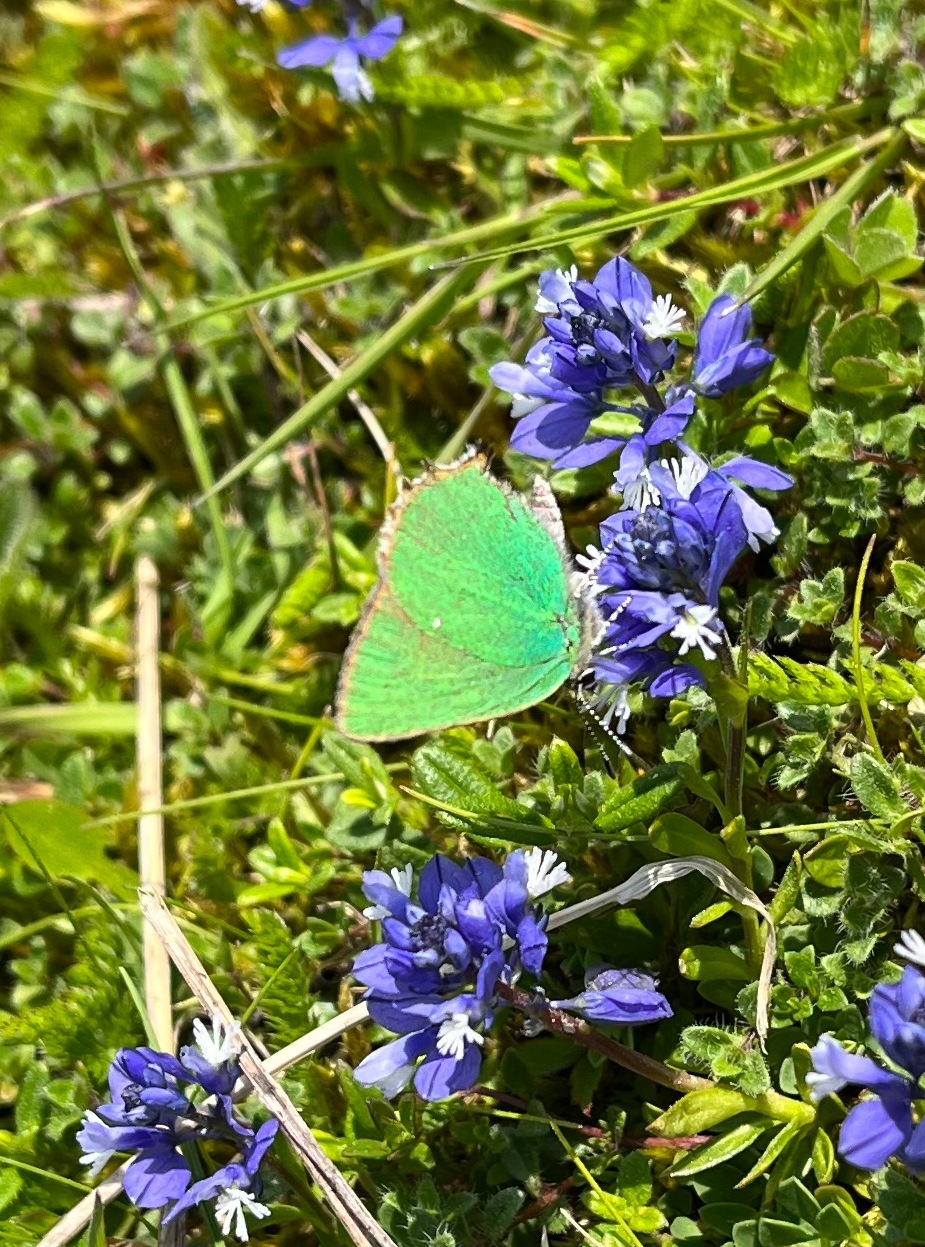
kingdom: Animalia
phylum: Arthropoda
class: Insecta
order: Lepidoptera
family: Lycaenidae
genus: Callophrys
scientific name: Callophrys rubi
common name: Green hairstreak
